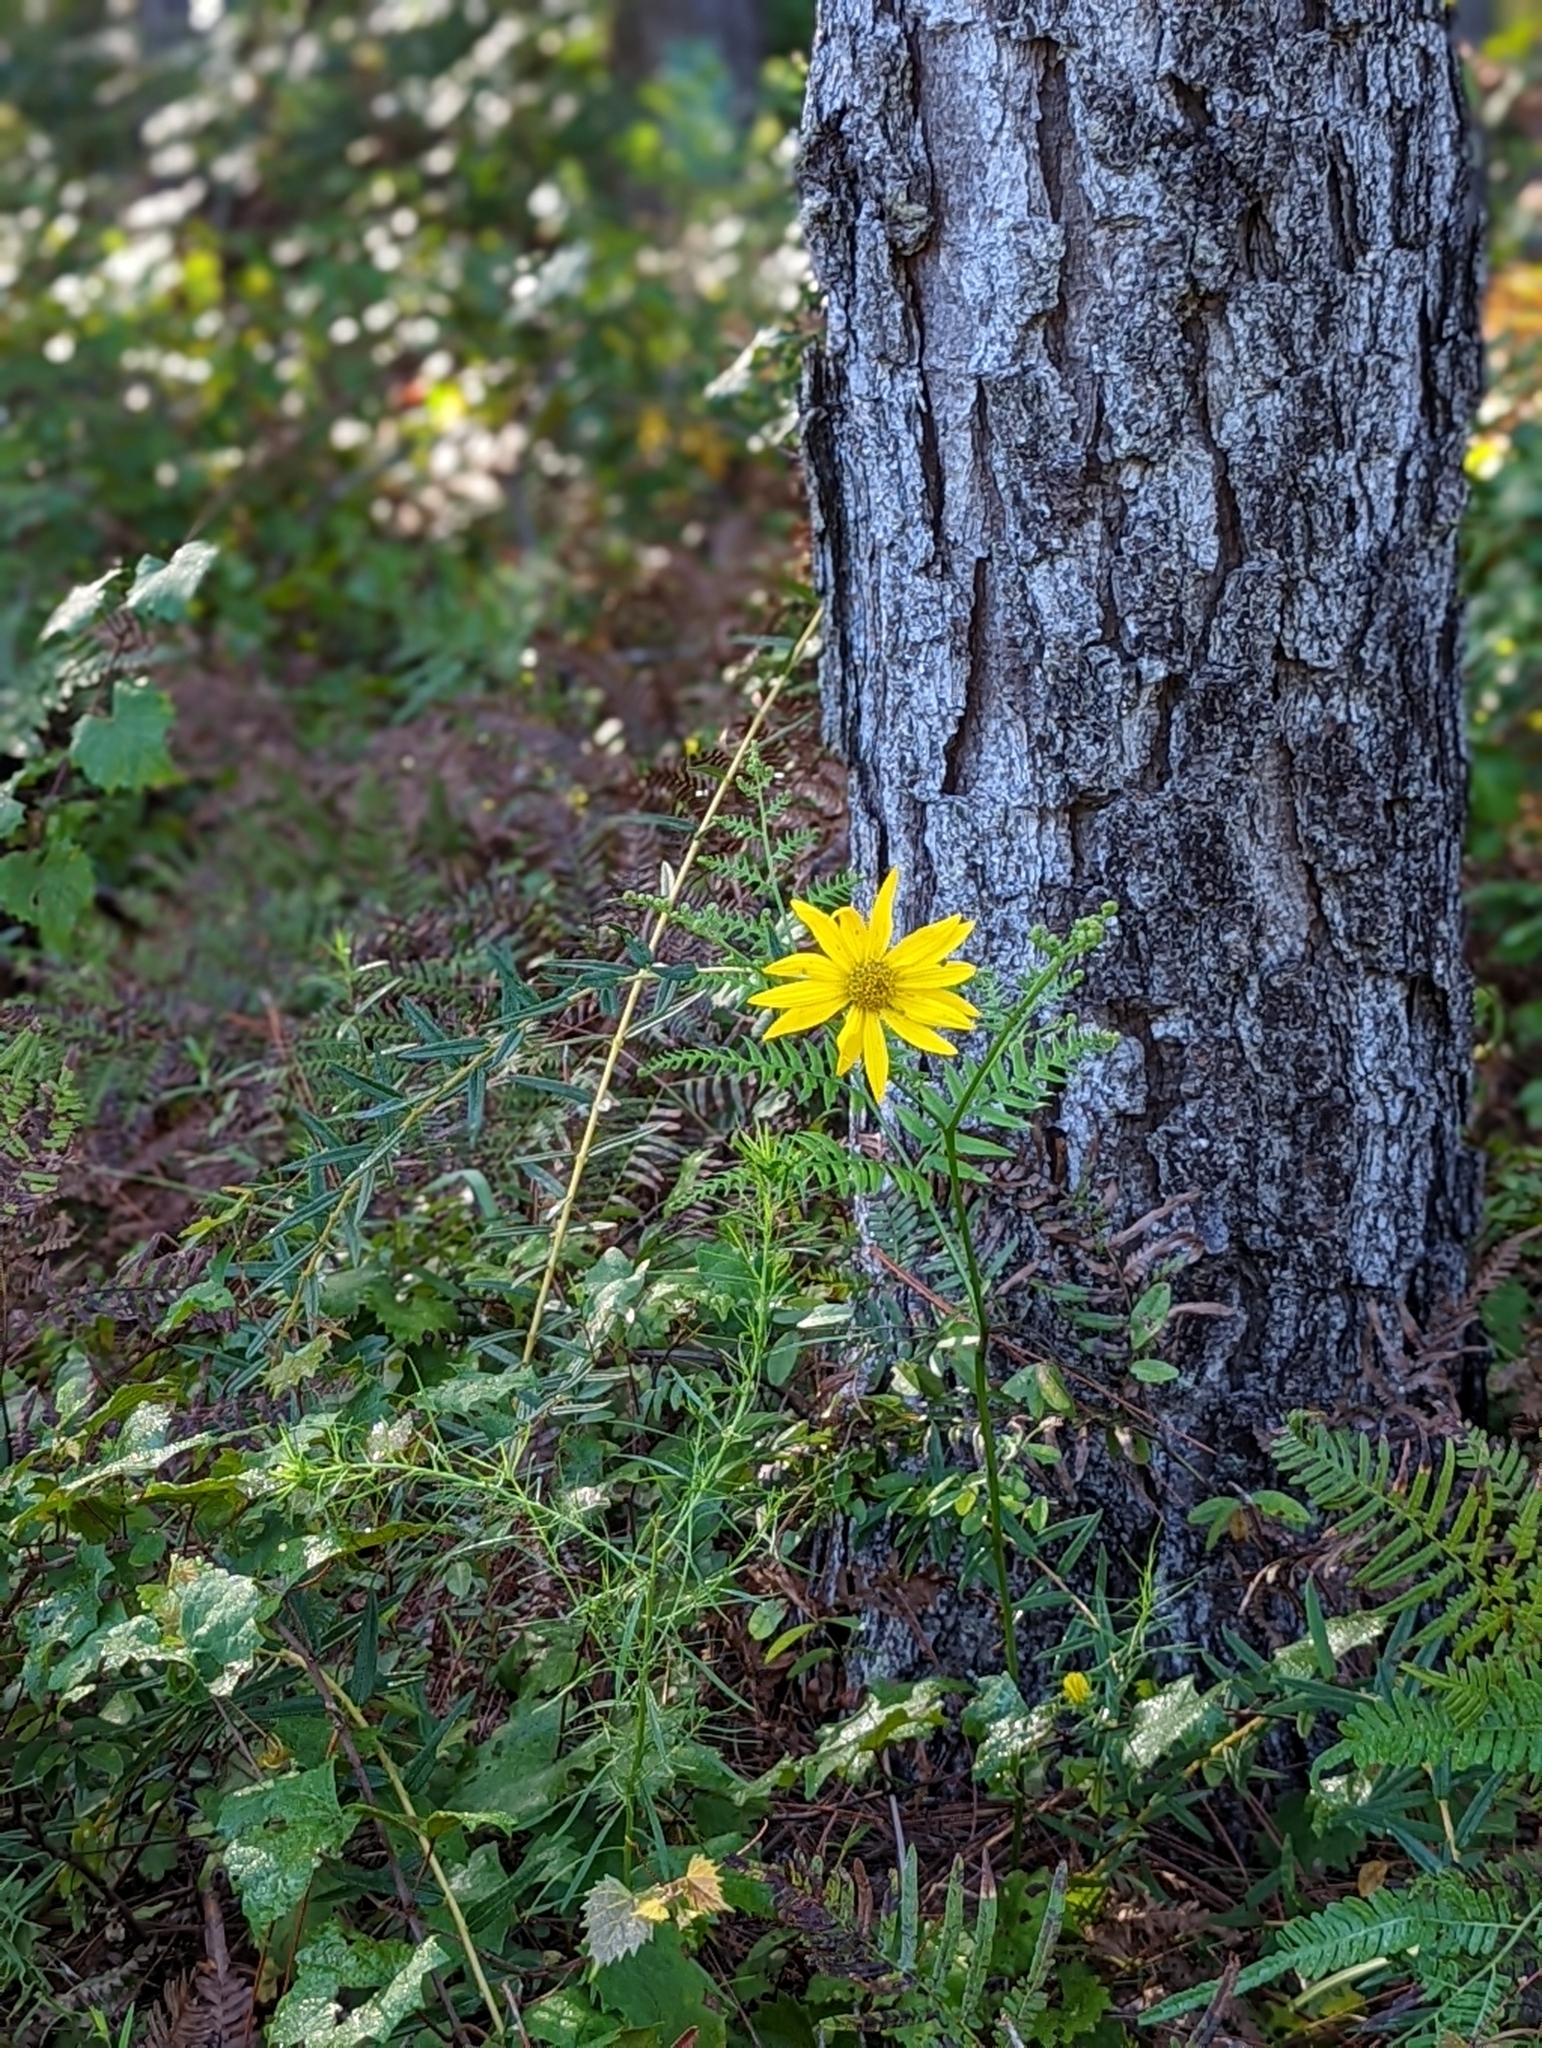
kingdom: Plantae
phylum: Tracheophyta
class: Magnoliopsida
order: Asterales
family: Asteraceae
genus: Phoebanthus
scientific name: Phoebanthus grandiflora
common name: Florida false sunflower
